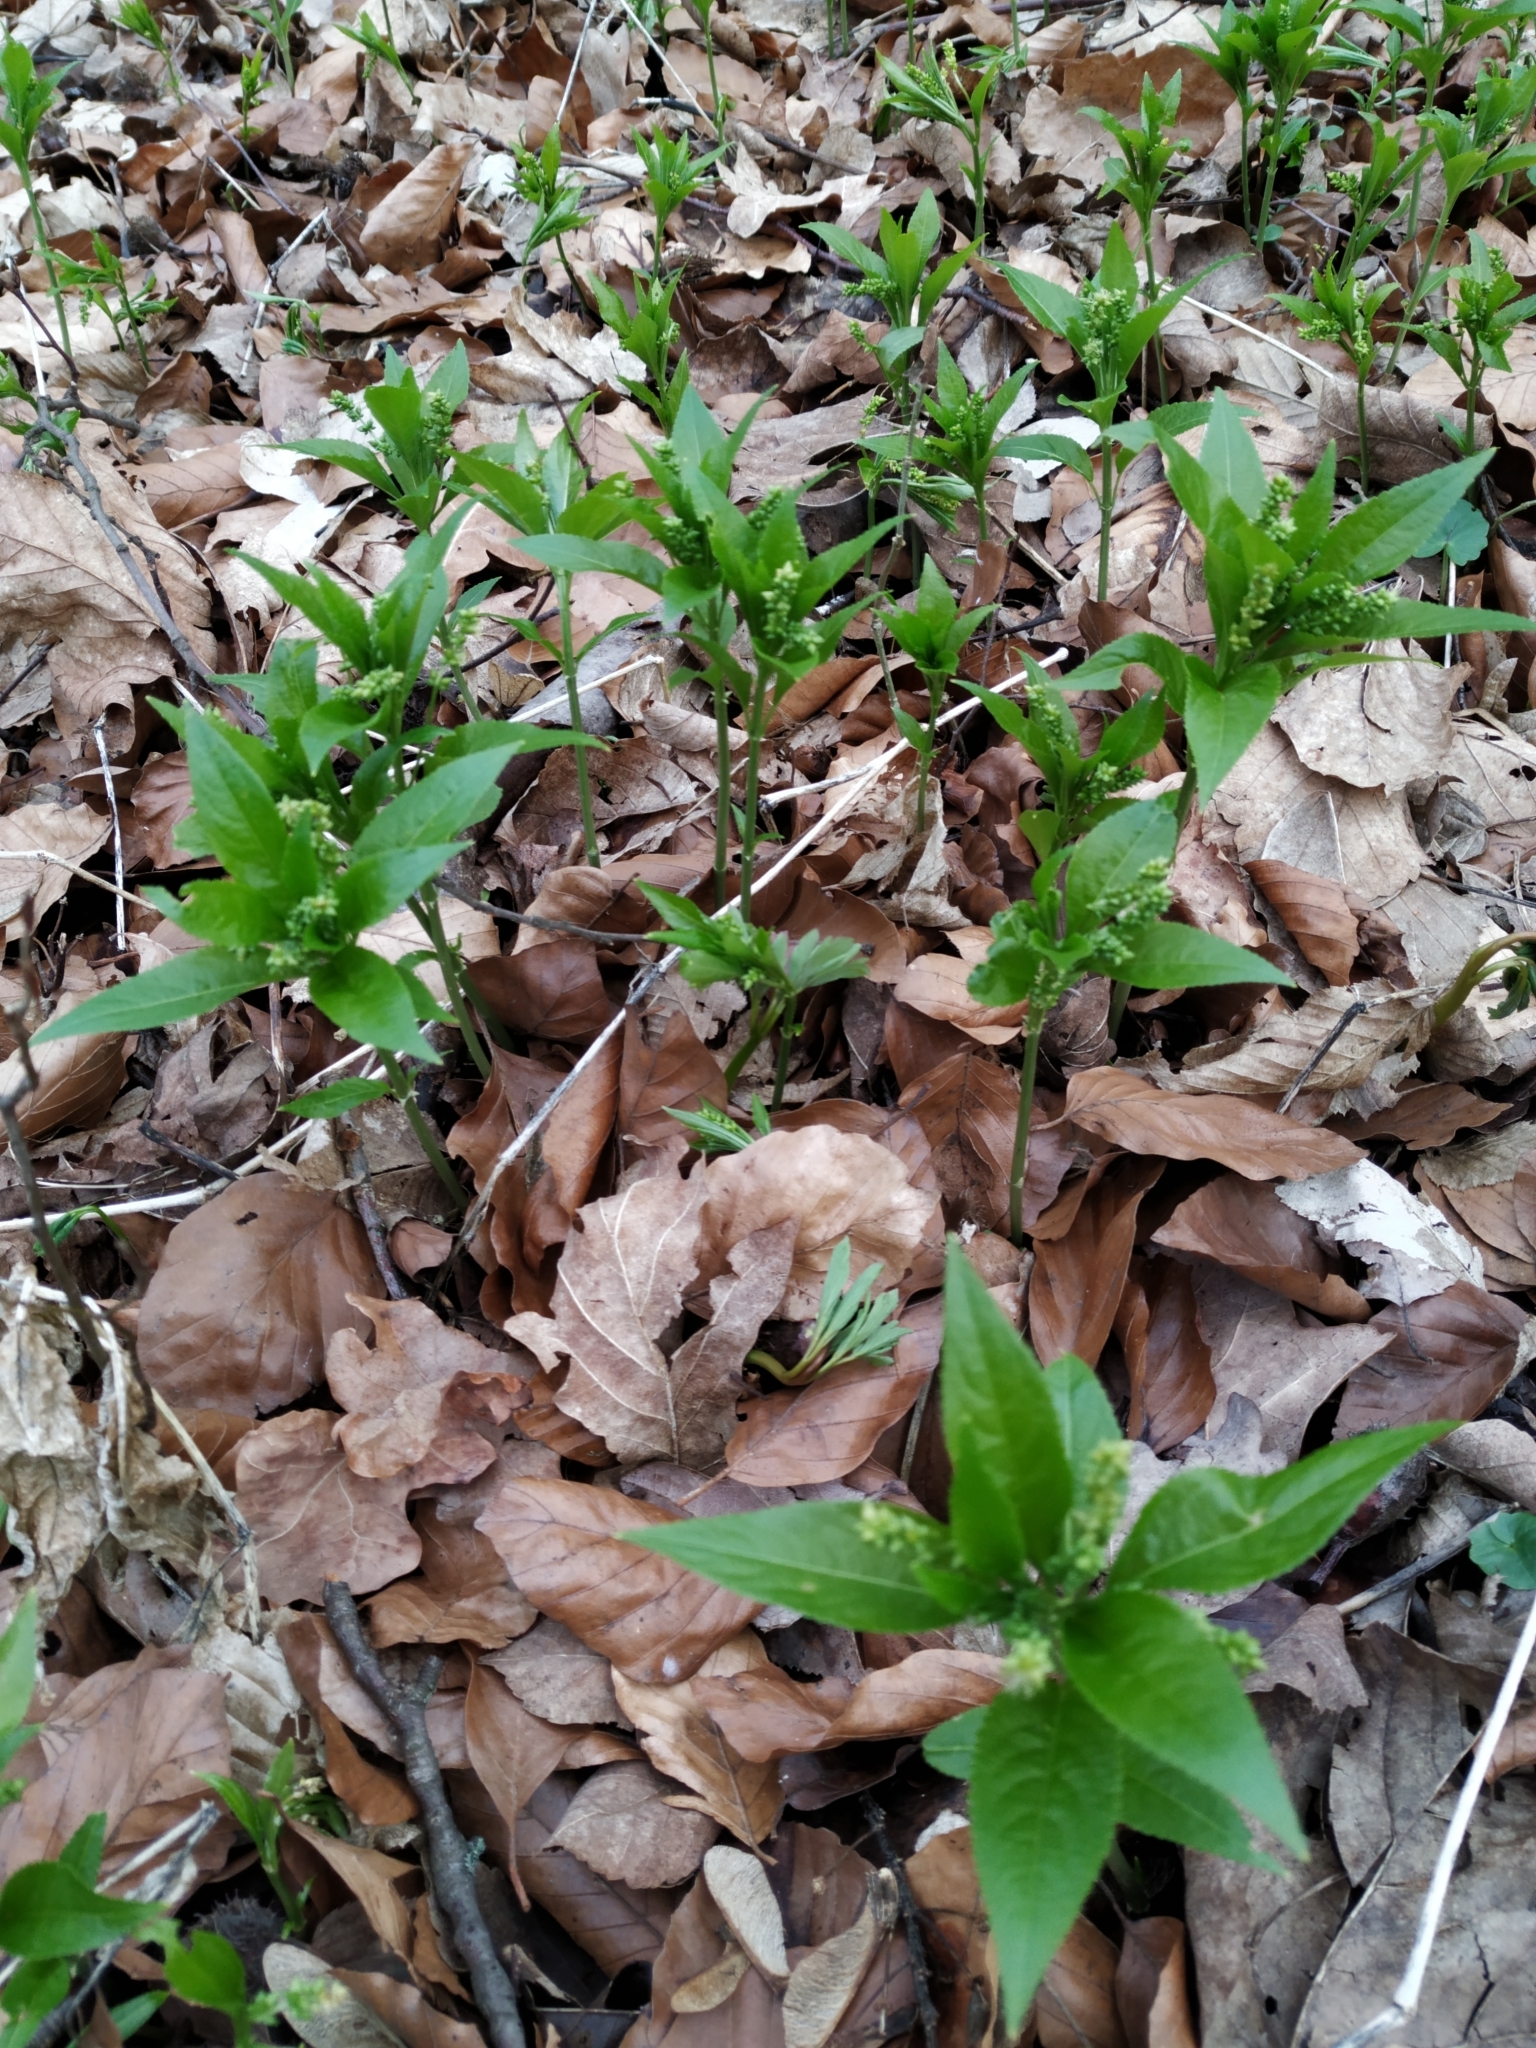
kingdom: Plantae
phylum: Tracheophyta
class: Magnoliopsida
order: Malpighiales
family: Euphorbiaceae
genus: Mercurialis
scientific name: Mercurialis perennis
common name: Dog mercury
